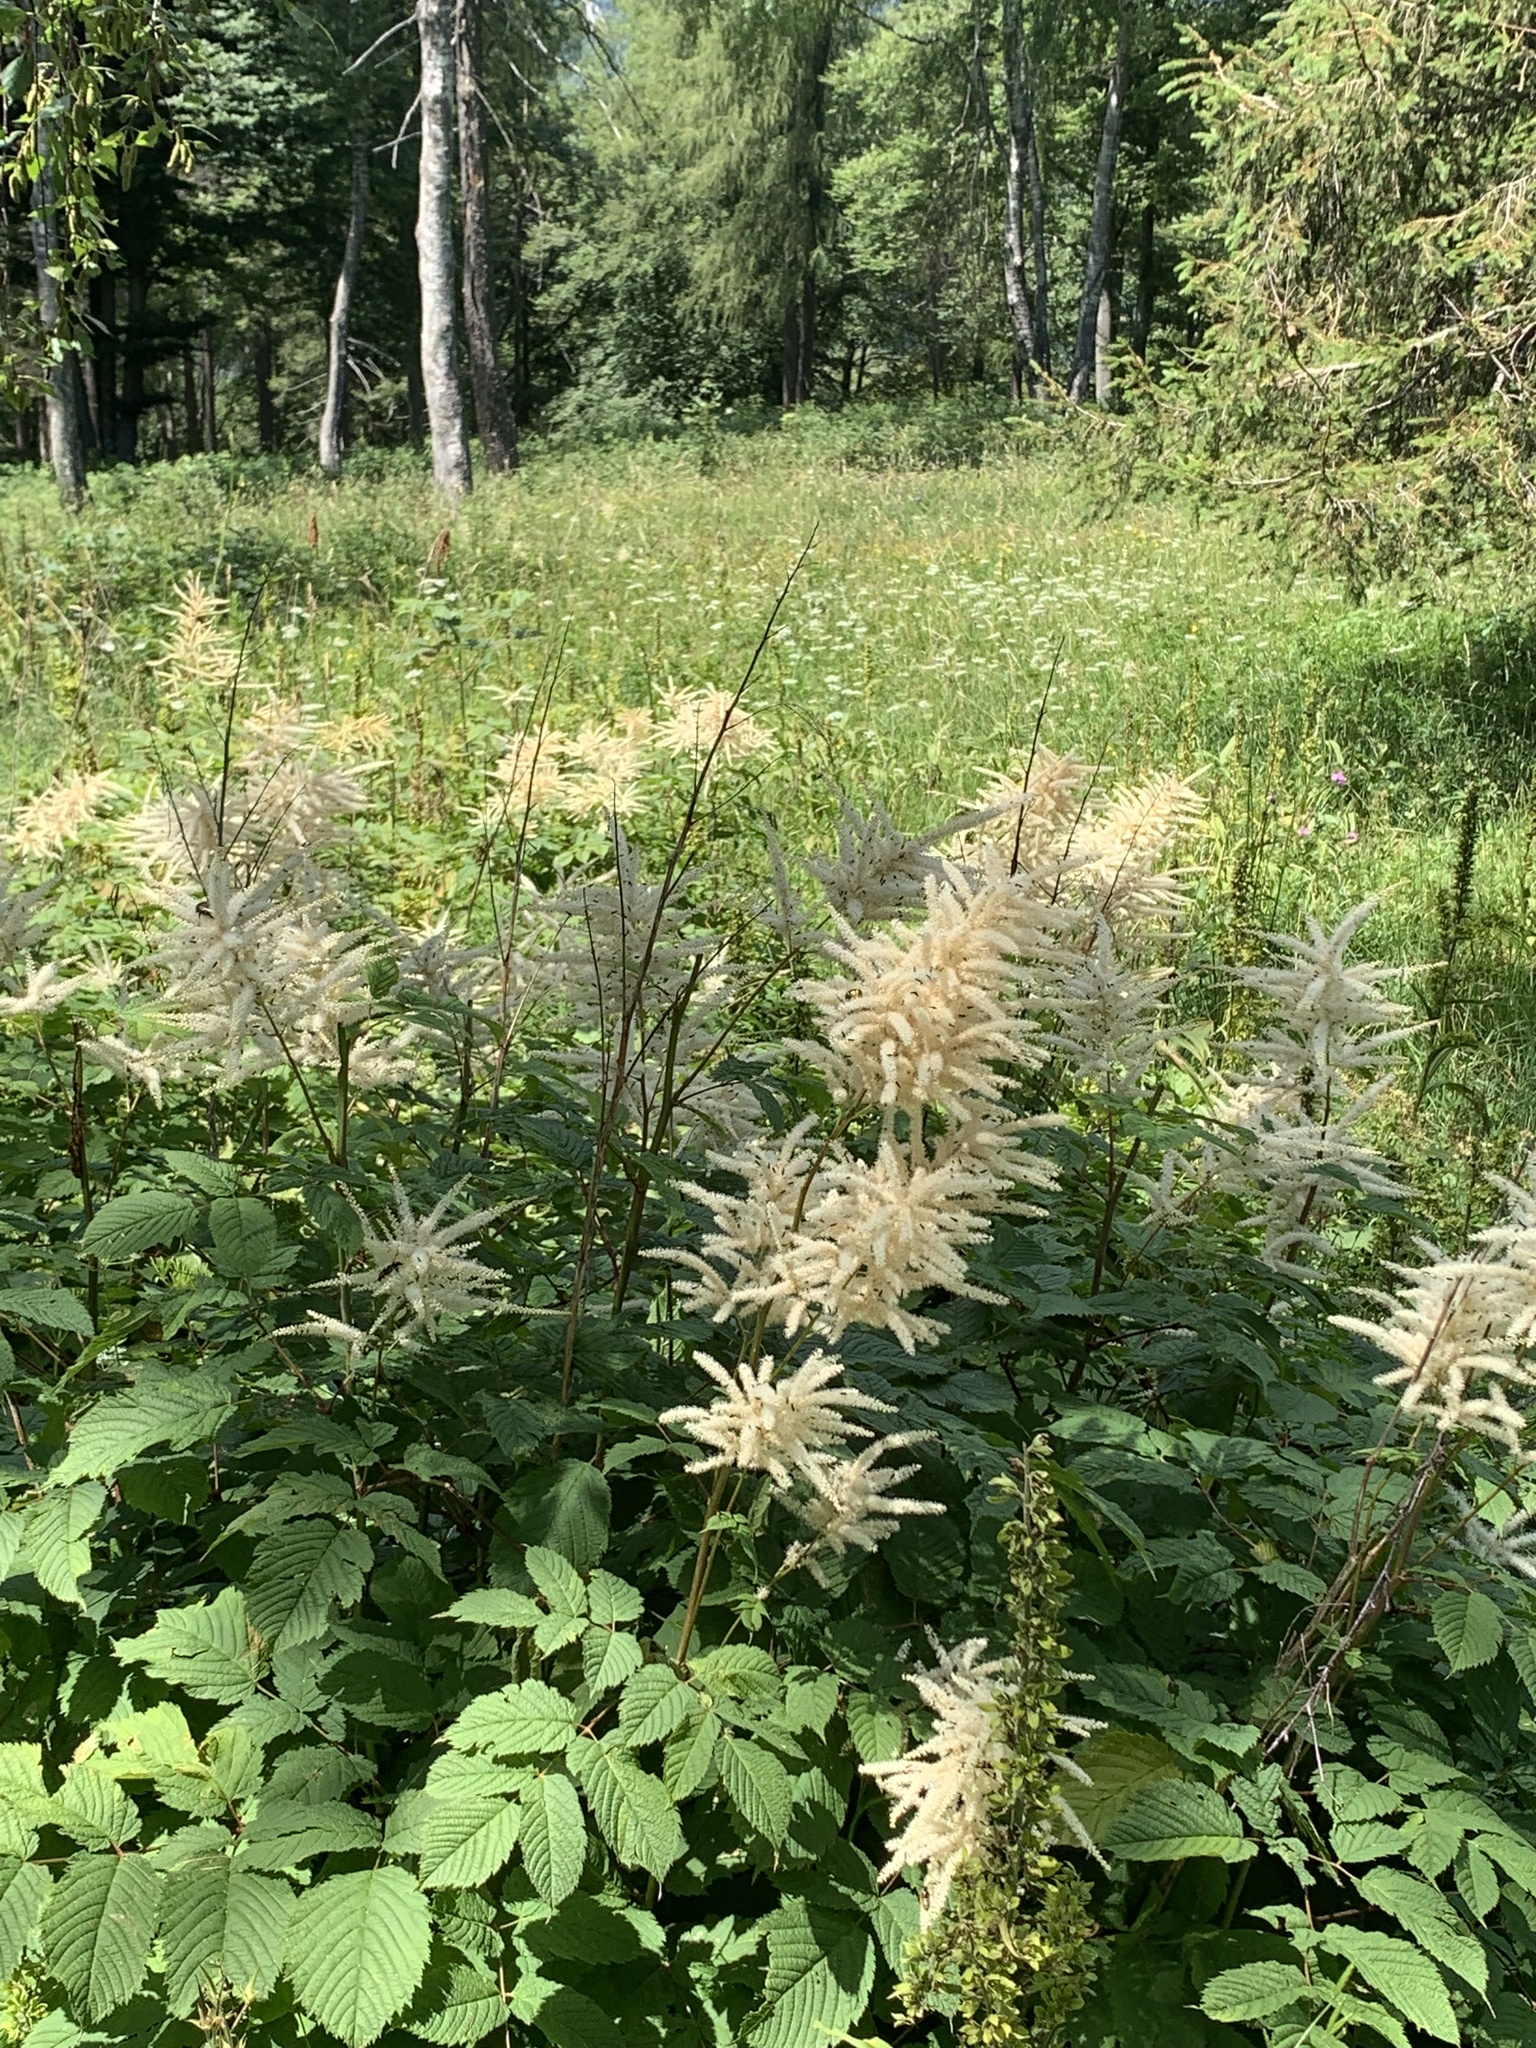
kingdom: Plantae
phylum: Tracheophyta
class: Magnoliopsida
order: Rosales
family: Rosaceae
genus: Aruncus
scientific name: Aruncus dioicus
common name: Buck's-beard
